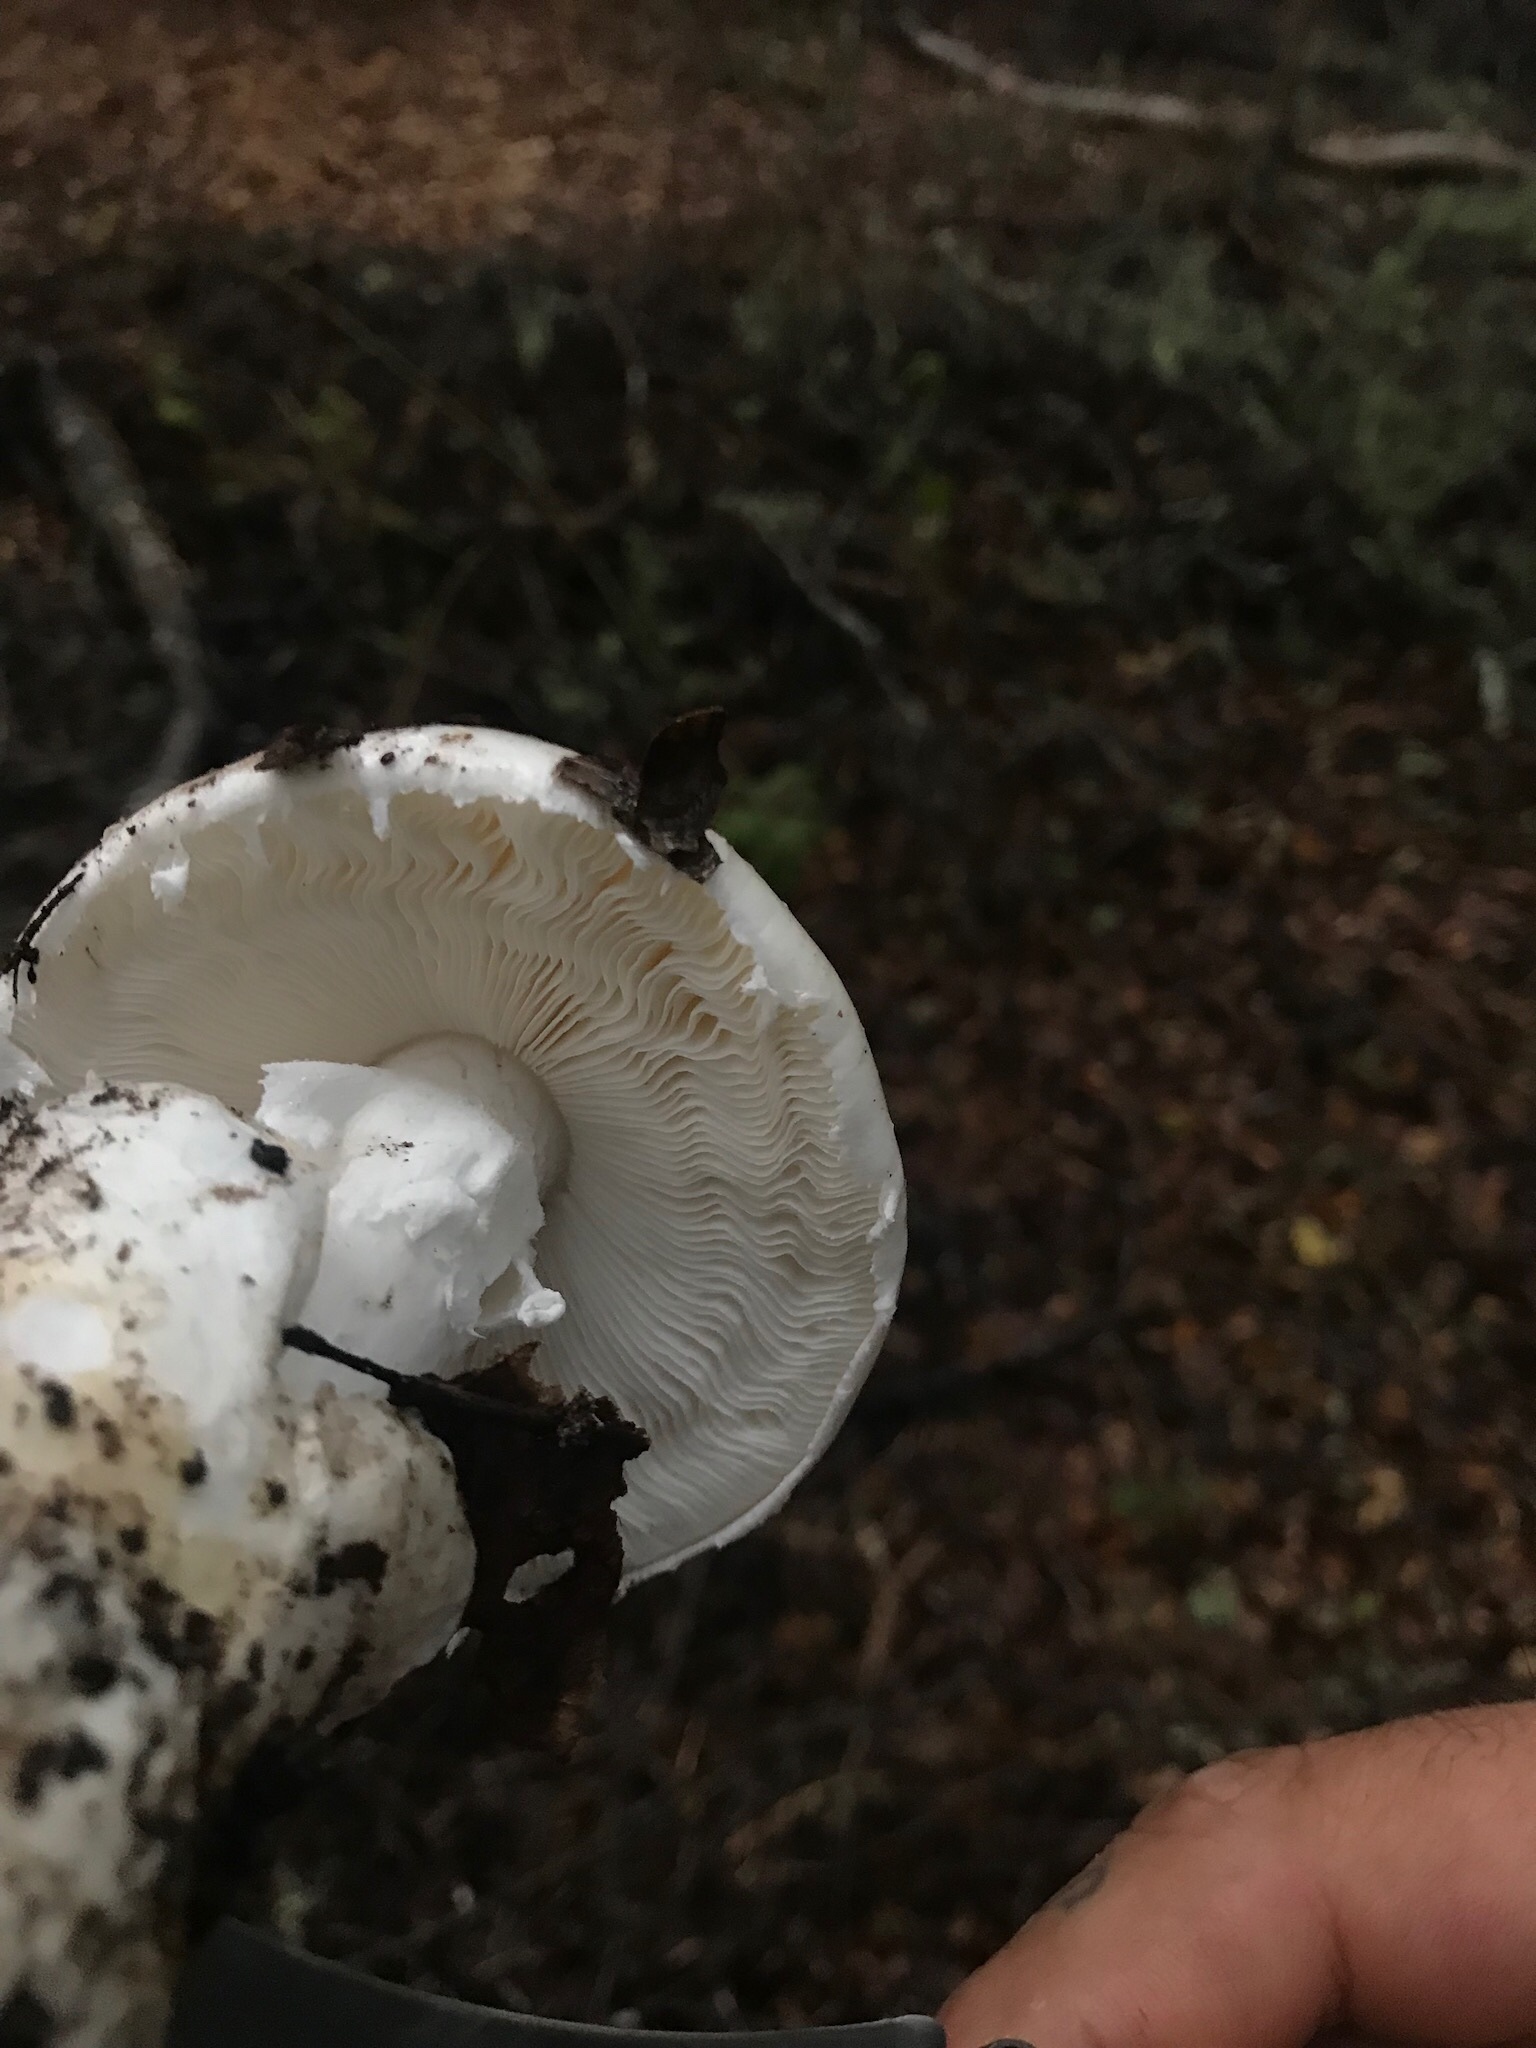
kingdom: Fungi
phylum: Basidiomycota
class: Agaricomycetes
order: Agaricales
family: Amanitaceae
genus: Amanita
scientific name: Amanita ocreata
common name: Western destroying angel
